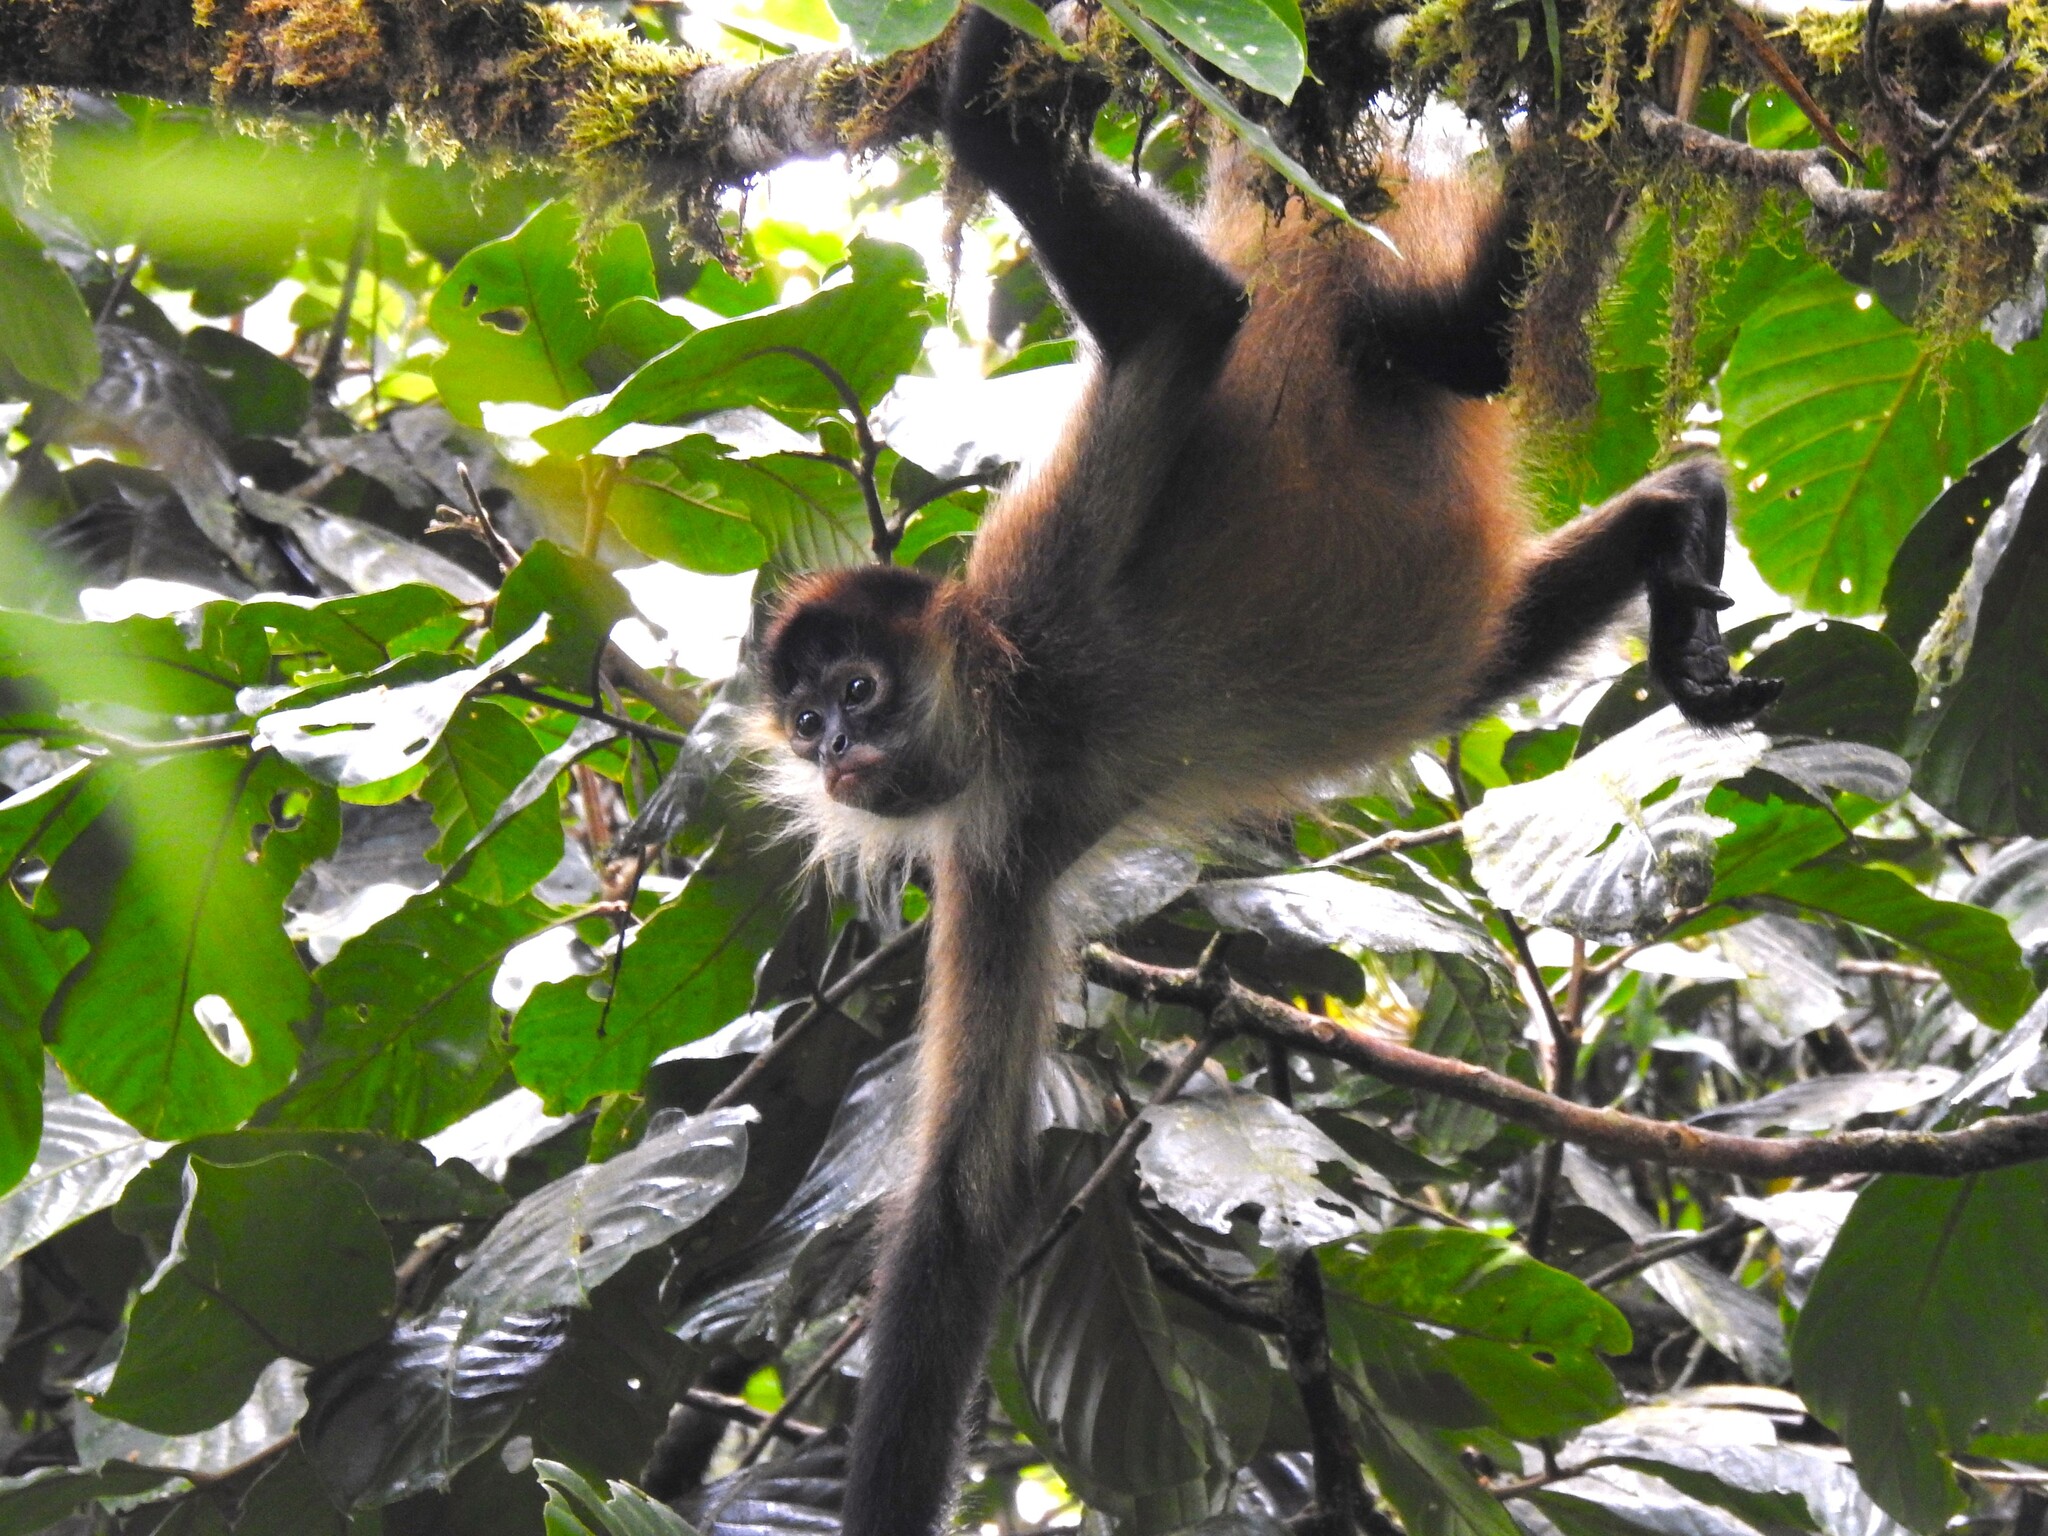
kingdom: Animalia
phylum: Chordata
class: Mammalia
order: Primates
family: Atelidae
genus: Ateles
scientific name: Ateles geoffroyi
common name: Black-handed spider monkey
